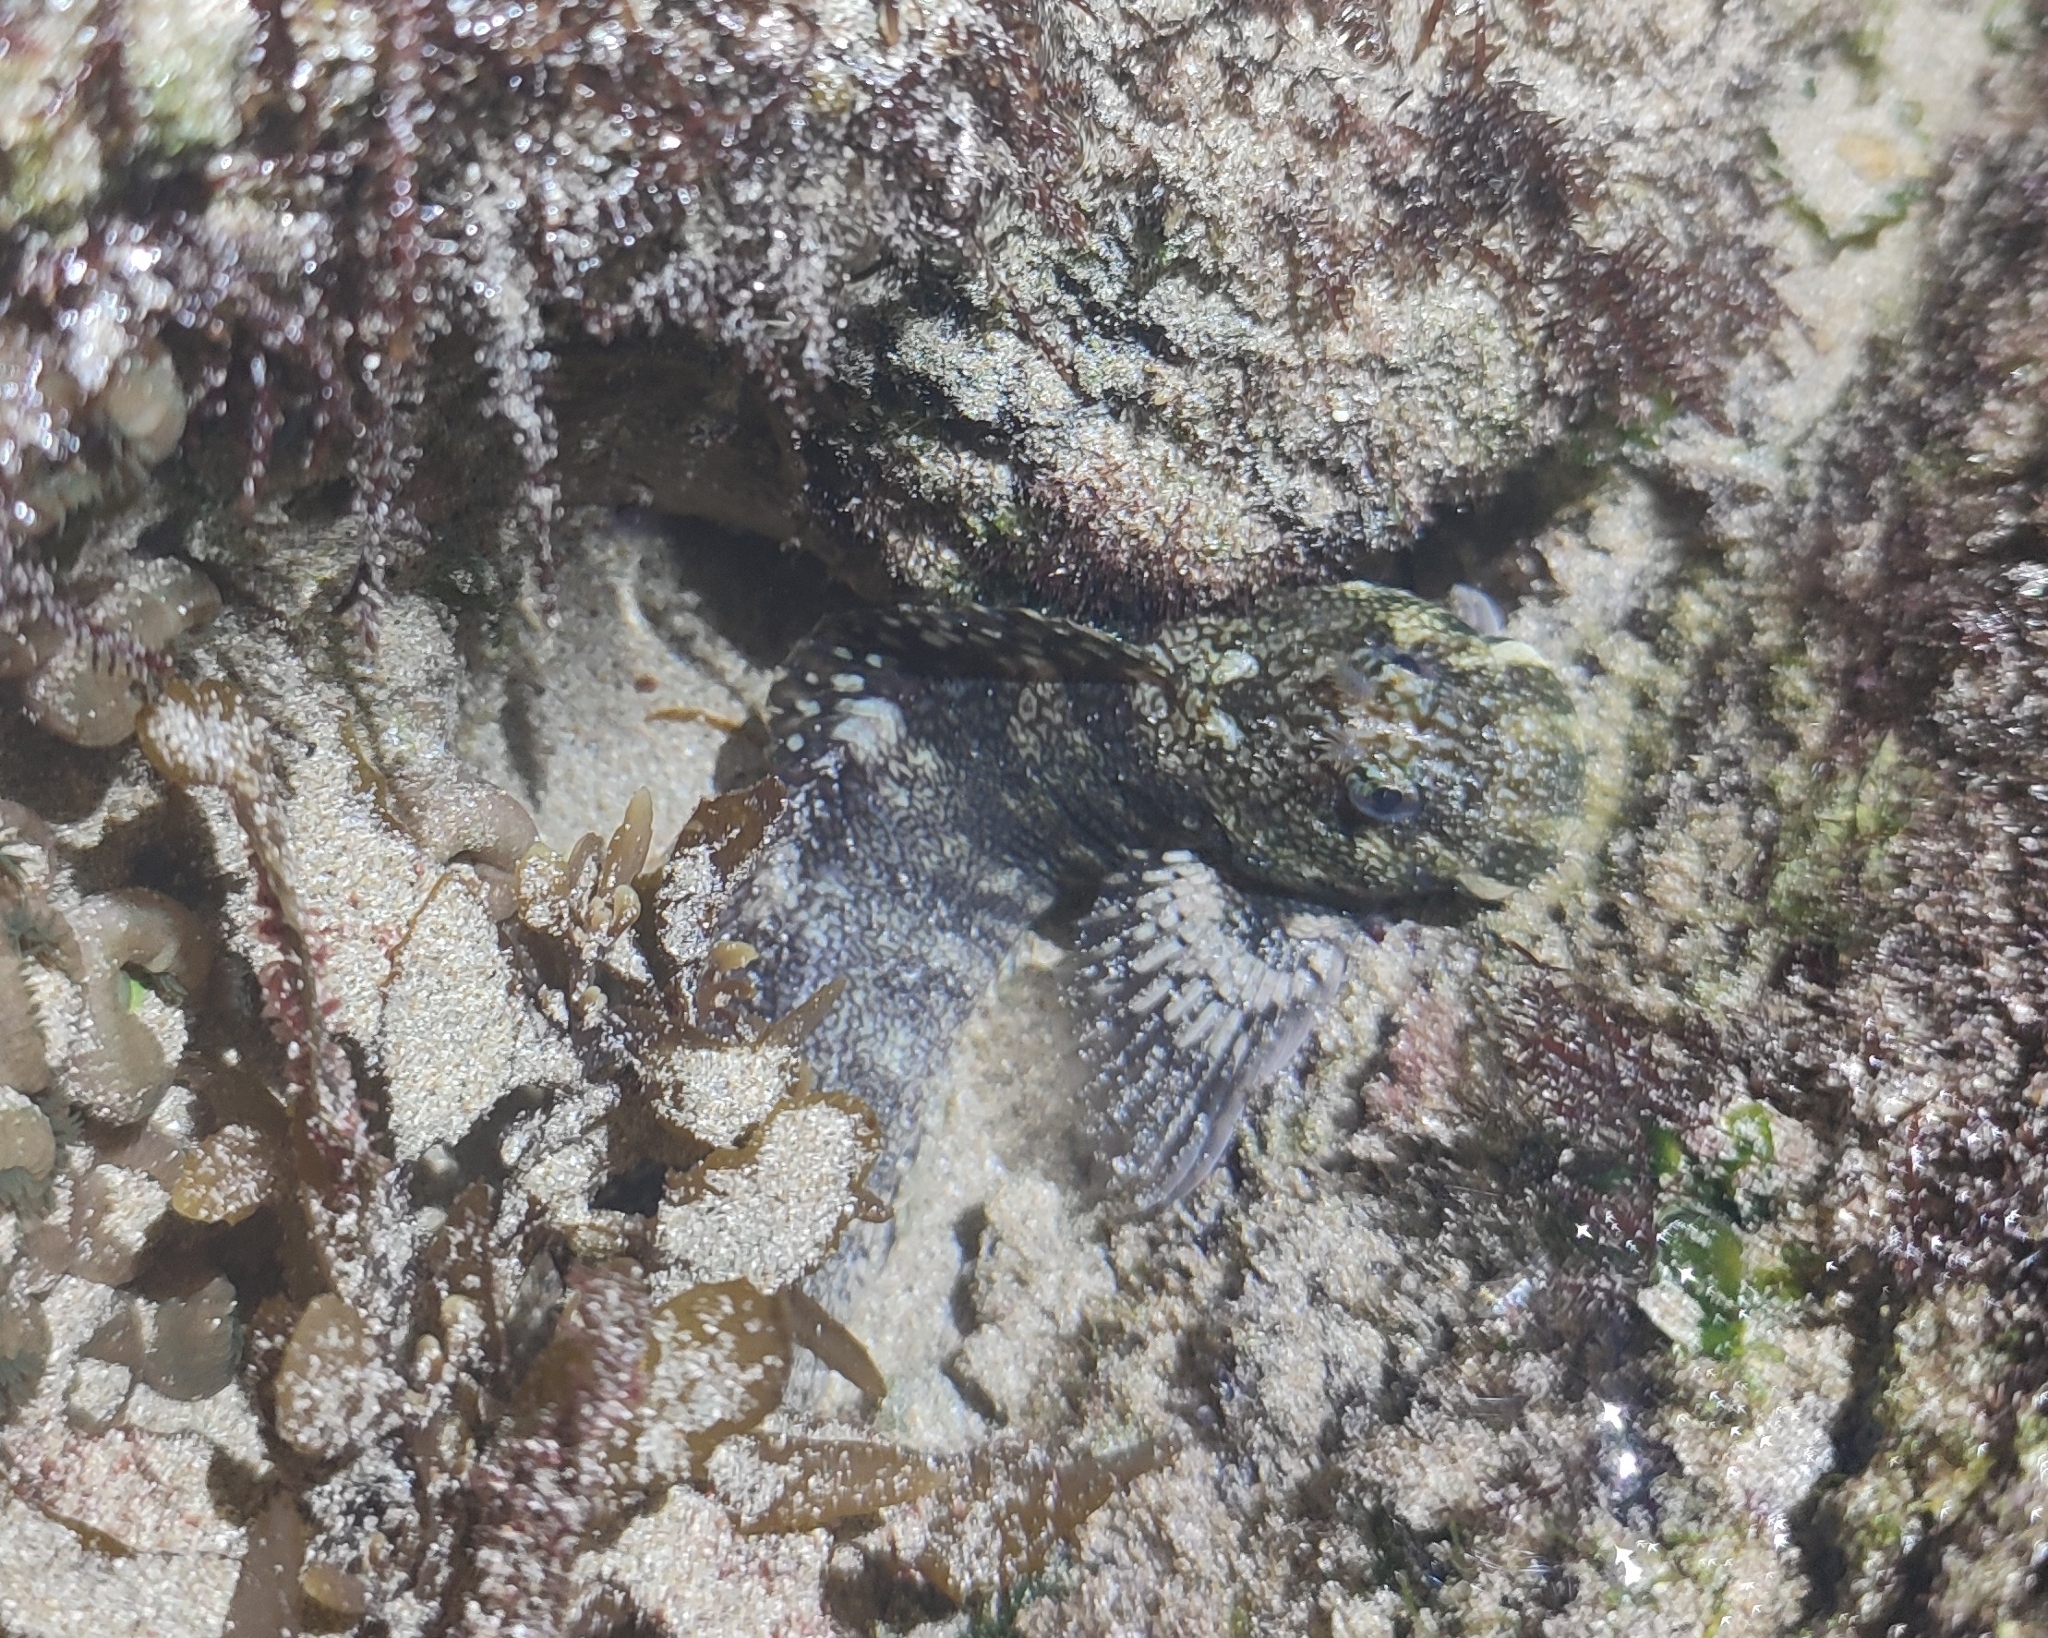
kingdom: Animalia
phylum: Chordata
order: Perciformes
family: Blenniidae
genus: Entomacrodus
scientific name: Entomacrodus vermiculatus
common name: Vermiculated blenny
